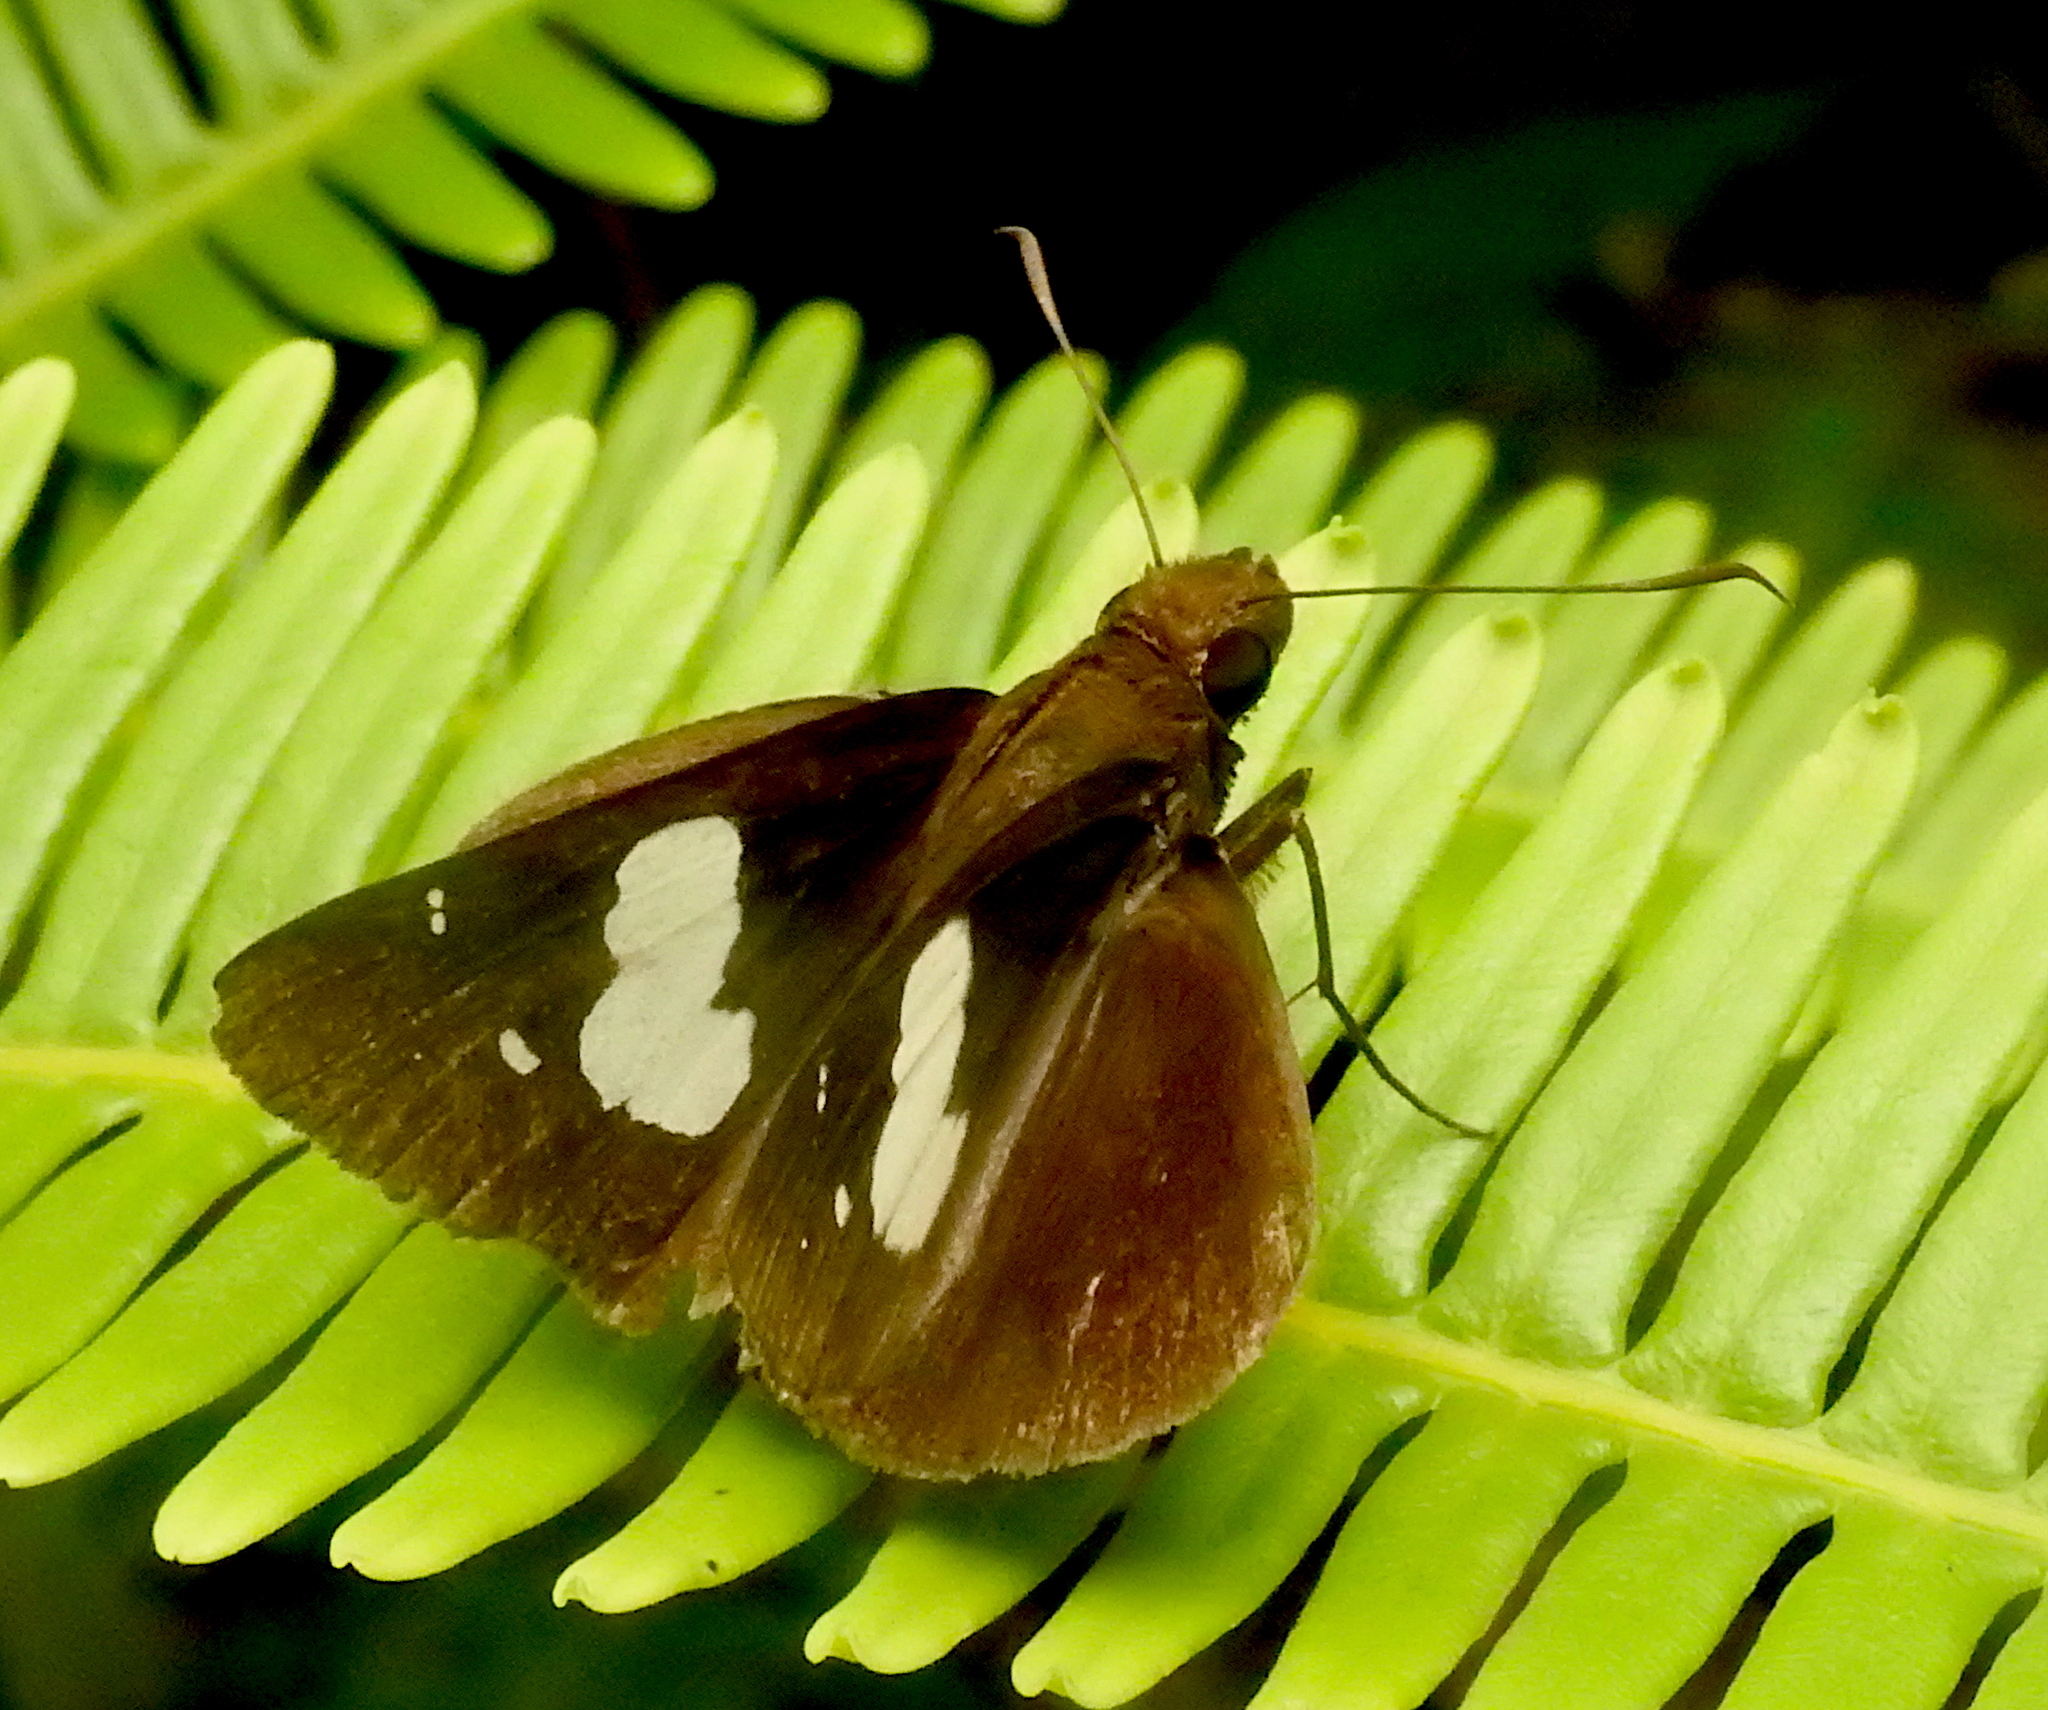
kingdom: Animalia
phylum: Arthropoda
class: Insecta
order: Lepidoptera
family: Hesperiidae
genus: Notocrypta
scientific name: Notocrypta curvifascia
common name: Restricted demon
